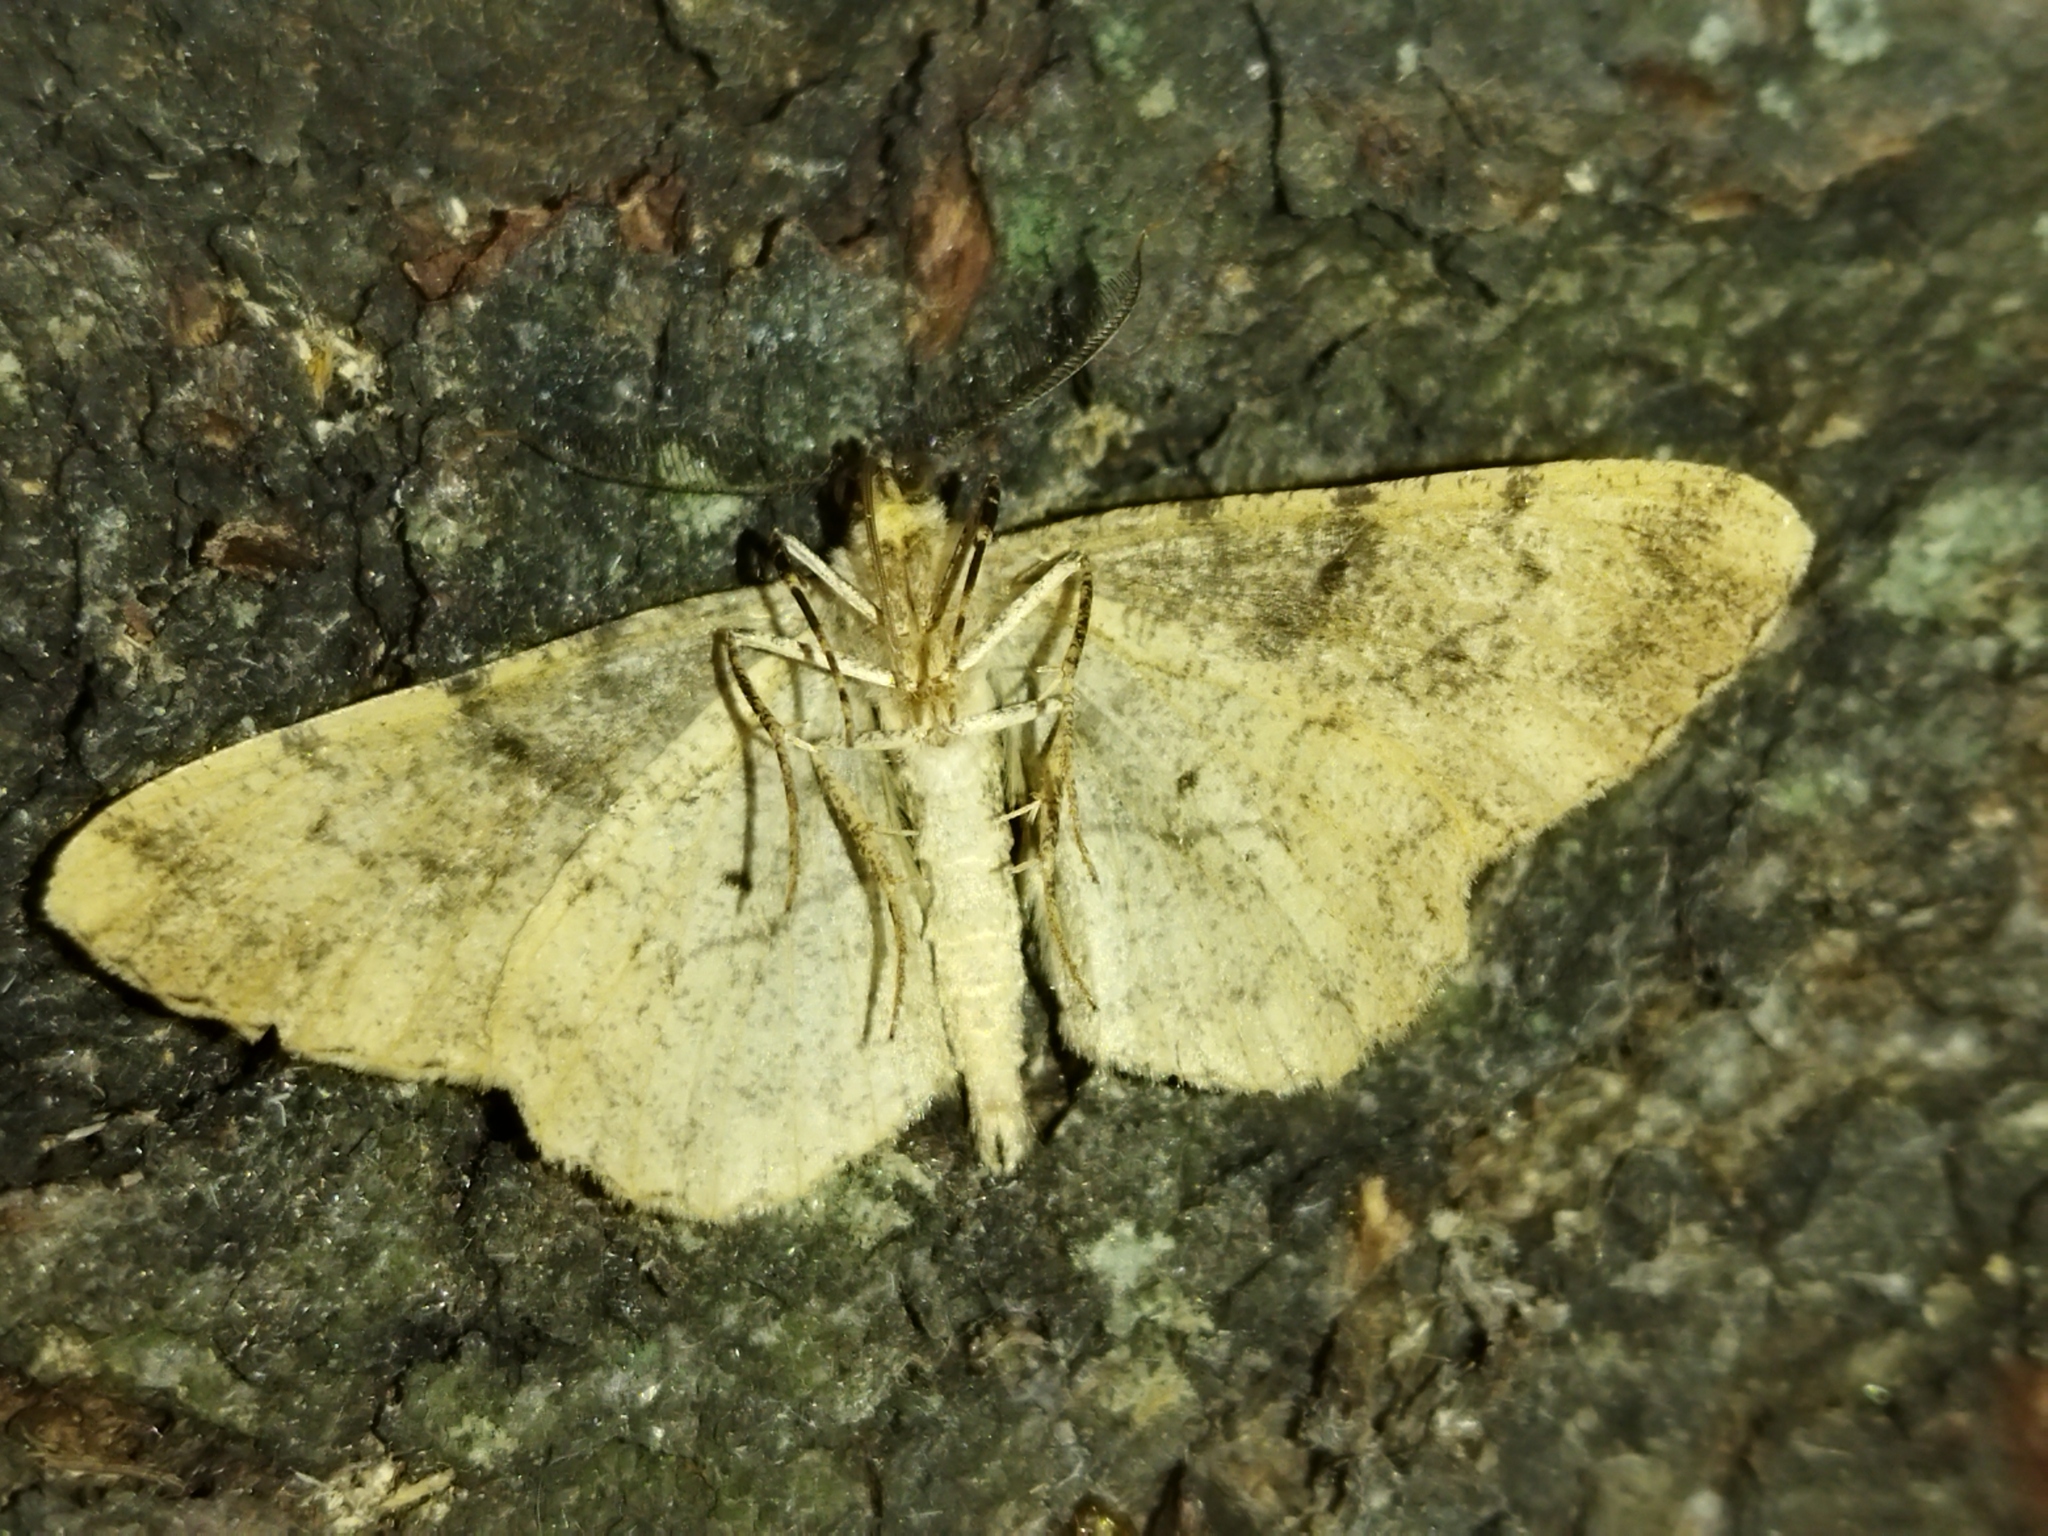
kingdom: Animalia
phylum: Arthropoda
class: Insecta
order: Lepidoptera
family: Geometridae
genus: Peribatodes
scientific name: Peribatodes rhomboidaria
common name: Willow beauty
